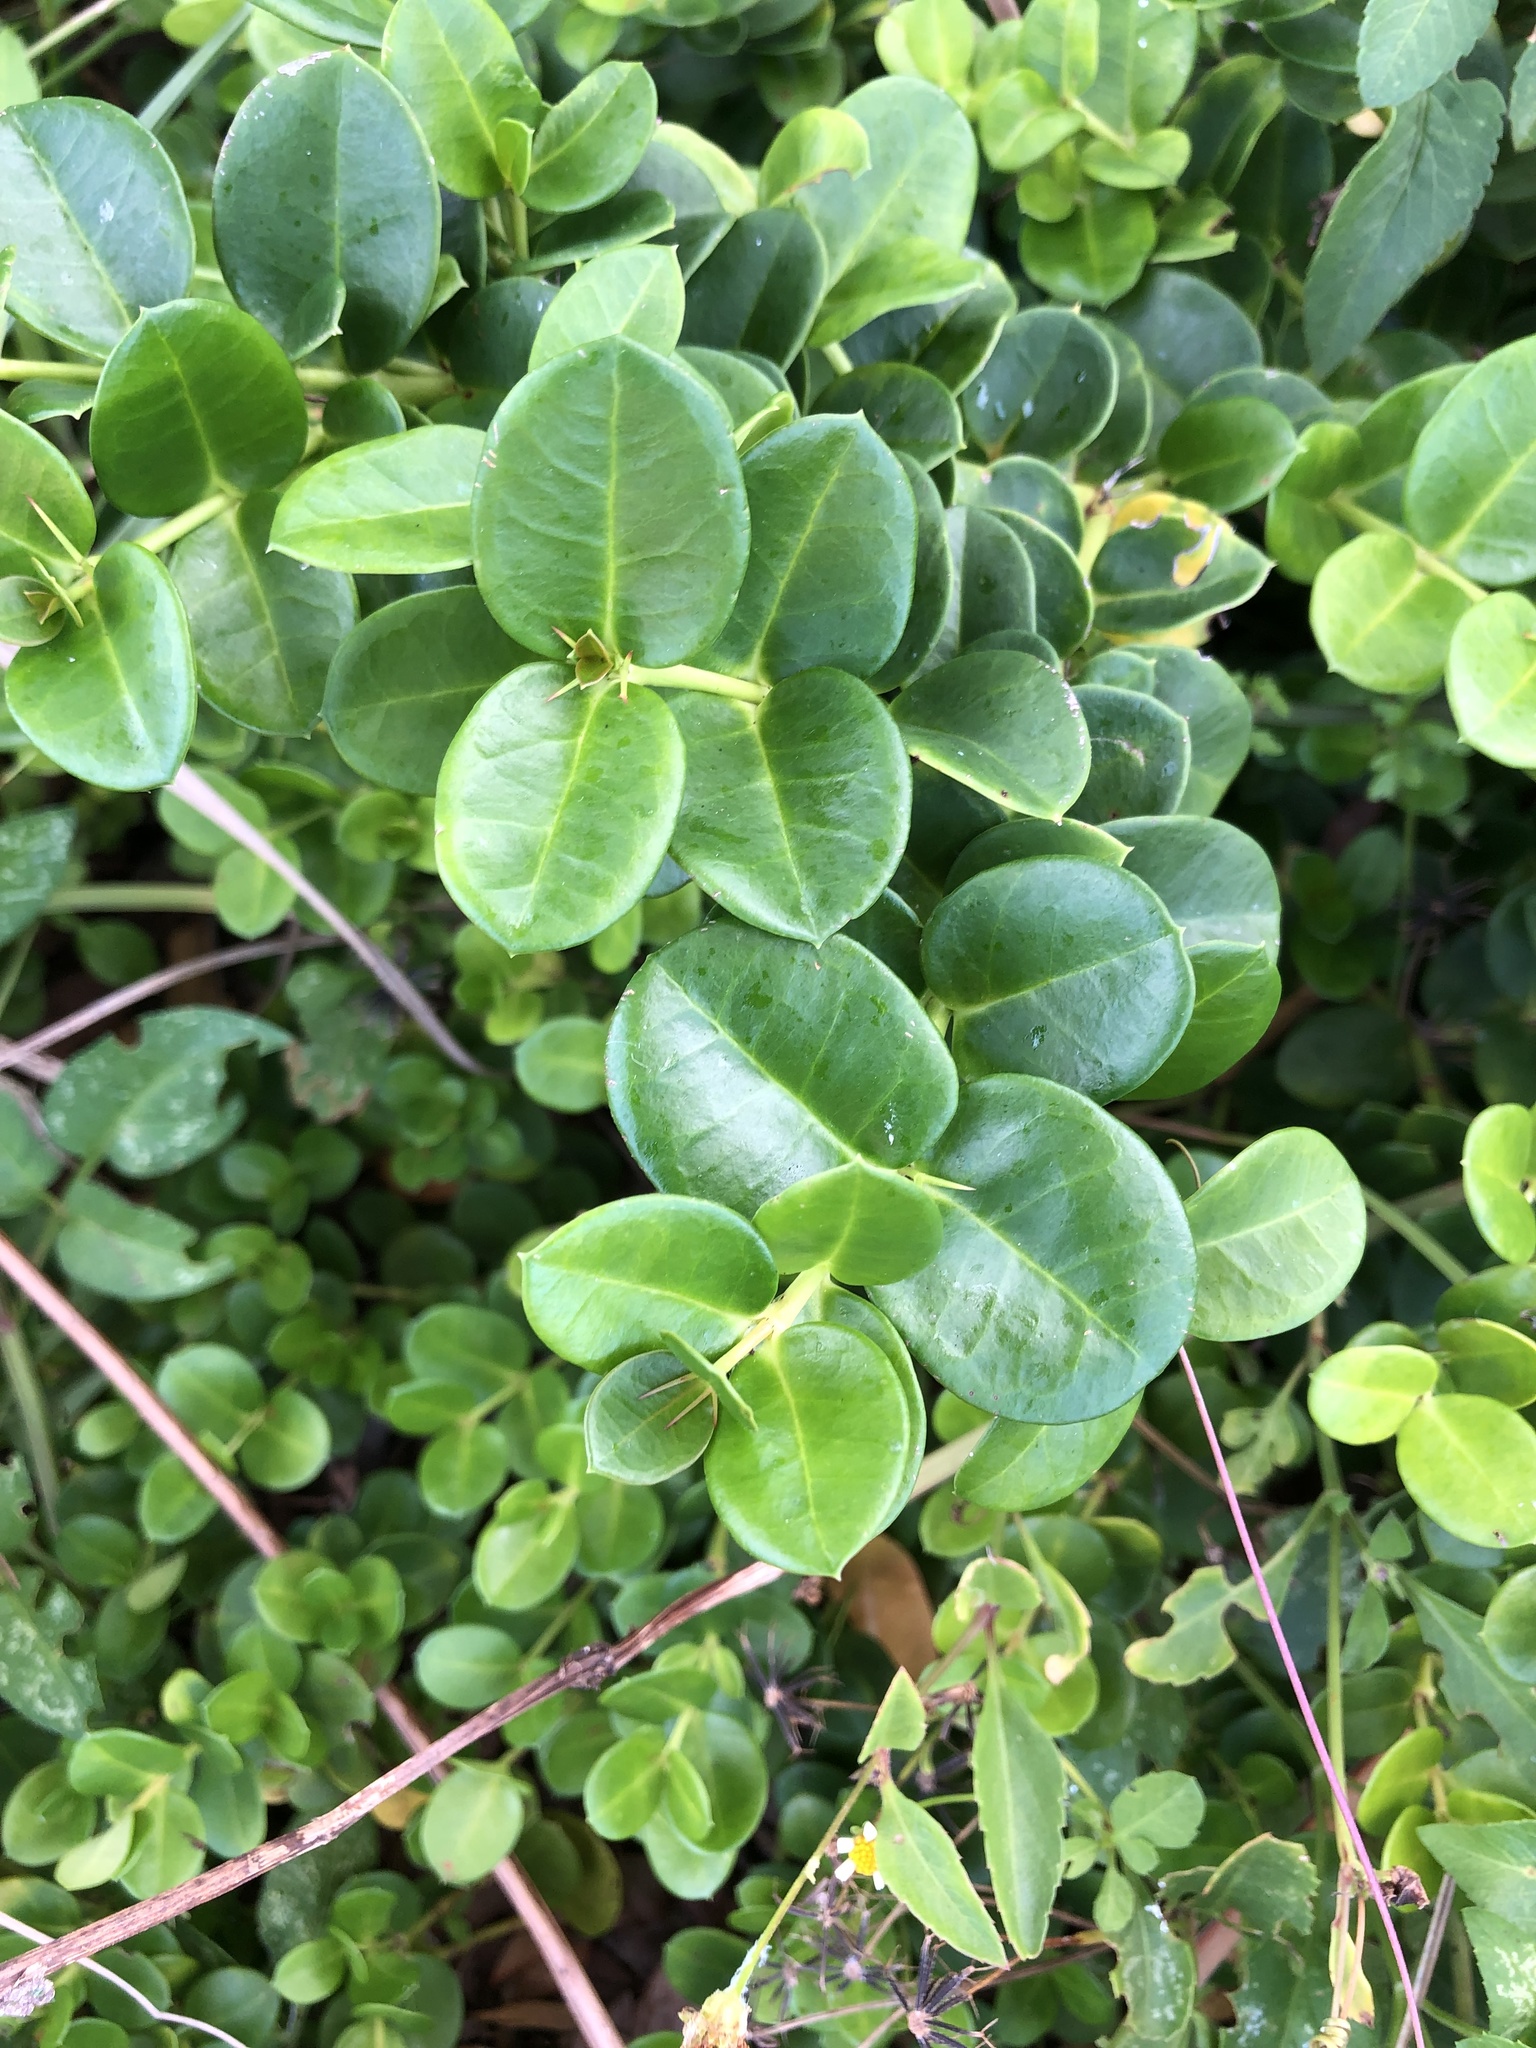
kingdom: Plantae
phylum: Tracheophyta
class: Magnoliopsida
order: Gentianales
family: Apocynaceae
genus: Carissa
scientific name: Carissa macrocarpa
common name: Natal plum
